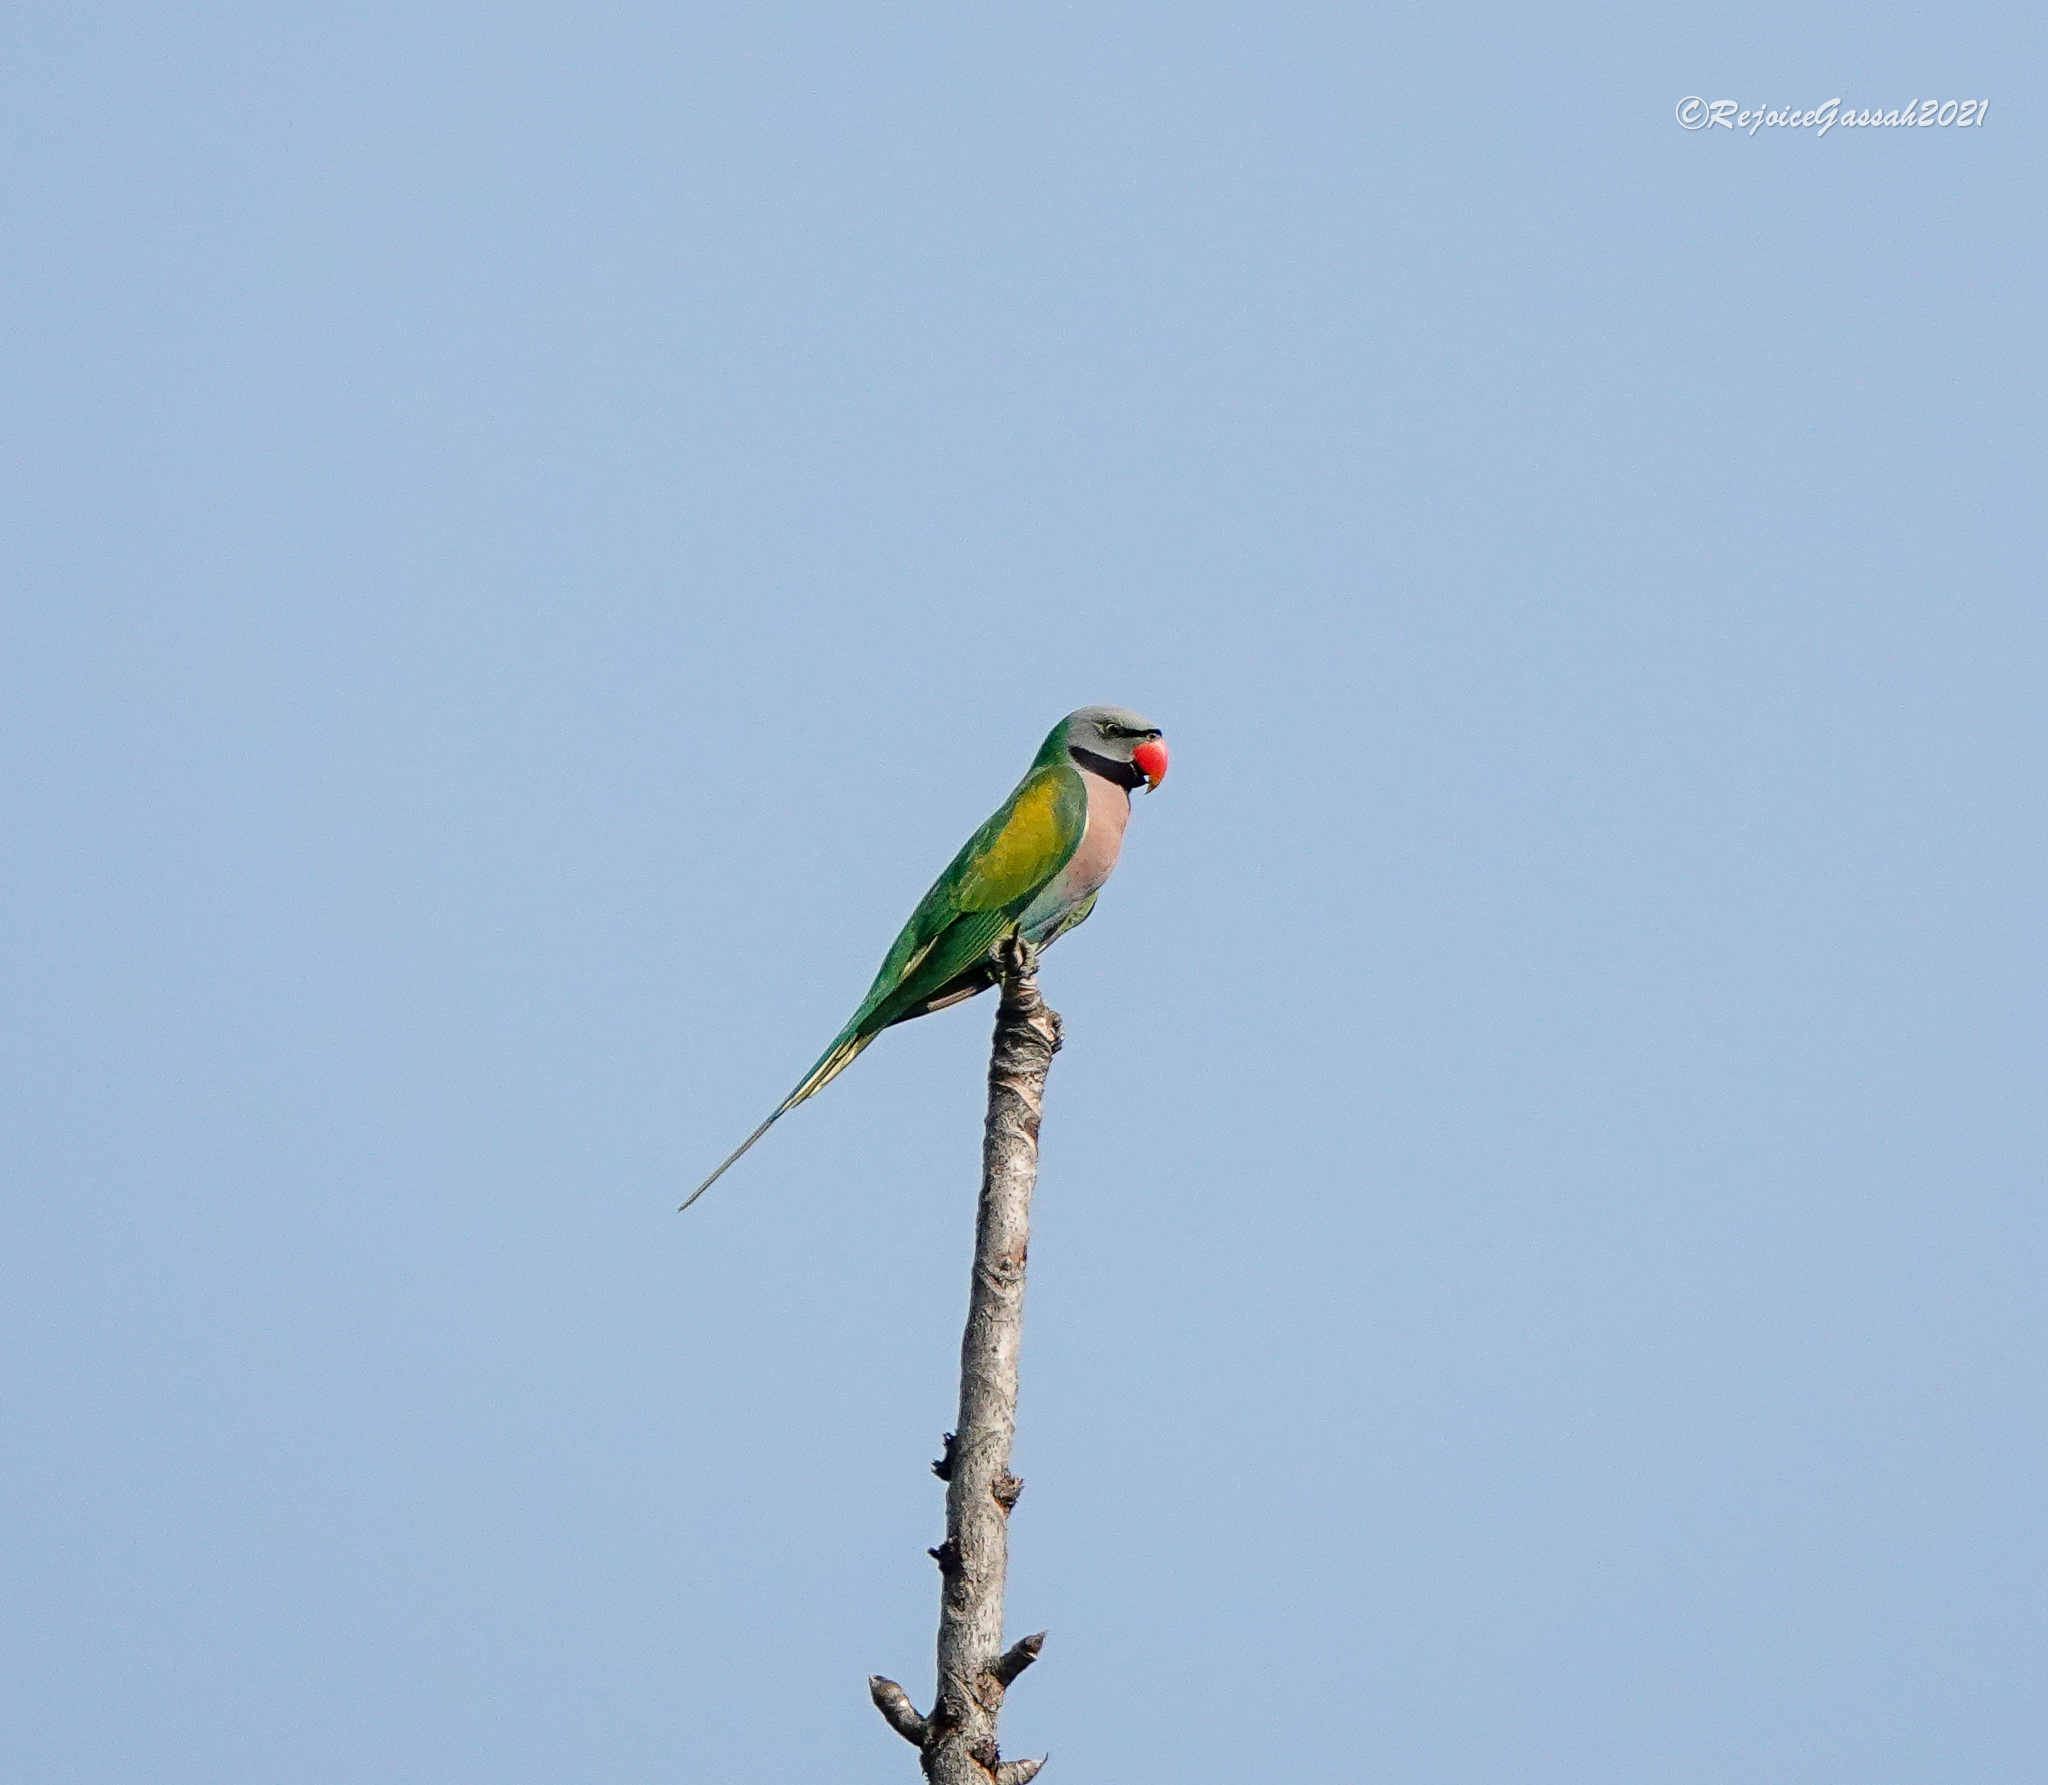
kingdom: Animalia
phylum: Chordata
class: Aves
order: Psittaciformes
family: Psittacidae
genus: Psittacula
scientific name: Psittacula alexandri
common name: Red-breasted parakeet
